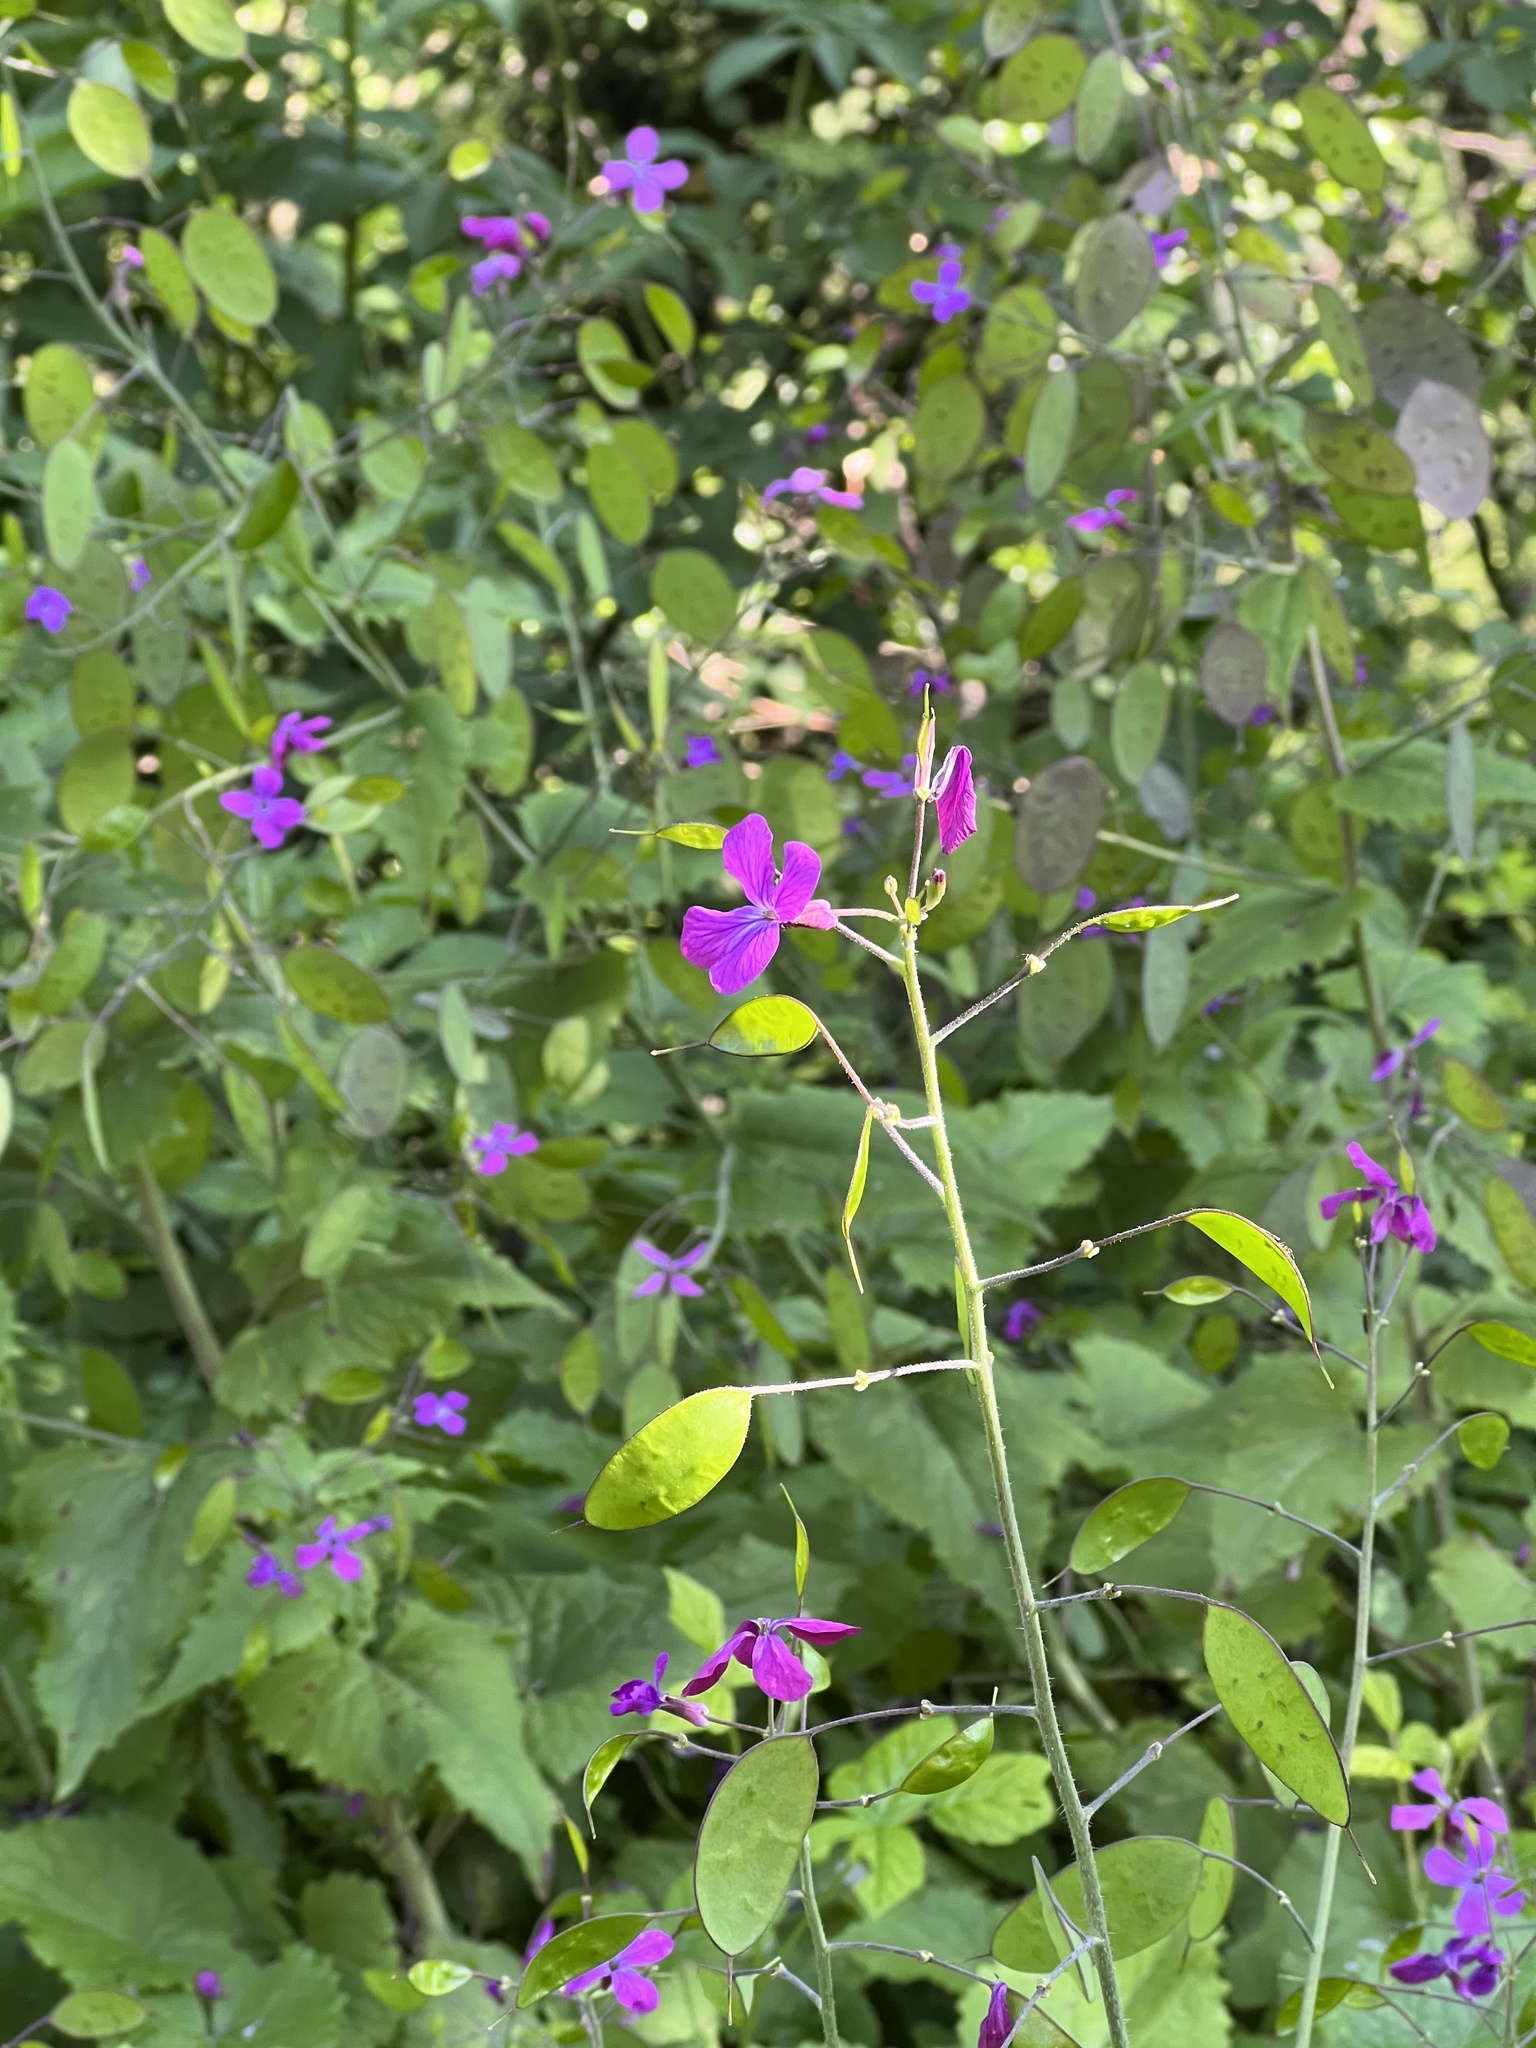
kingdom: Plantae
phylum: Tracheophyta
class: Magnoliopsida
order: Brassicales
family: Brassicaceae
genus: Lunaria
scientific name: Lunaria annua
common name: Honesty
